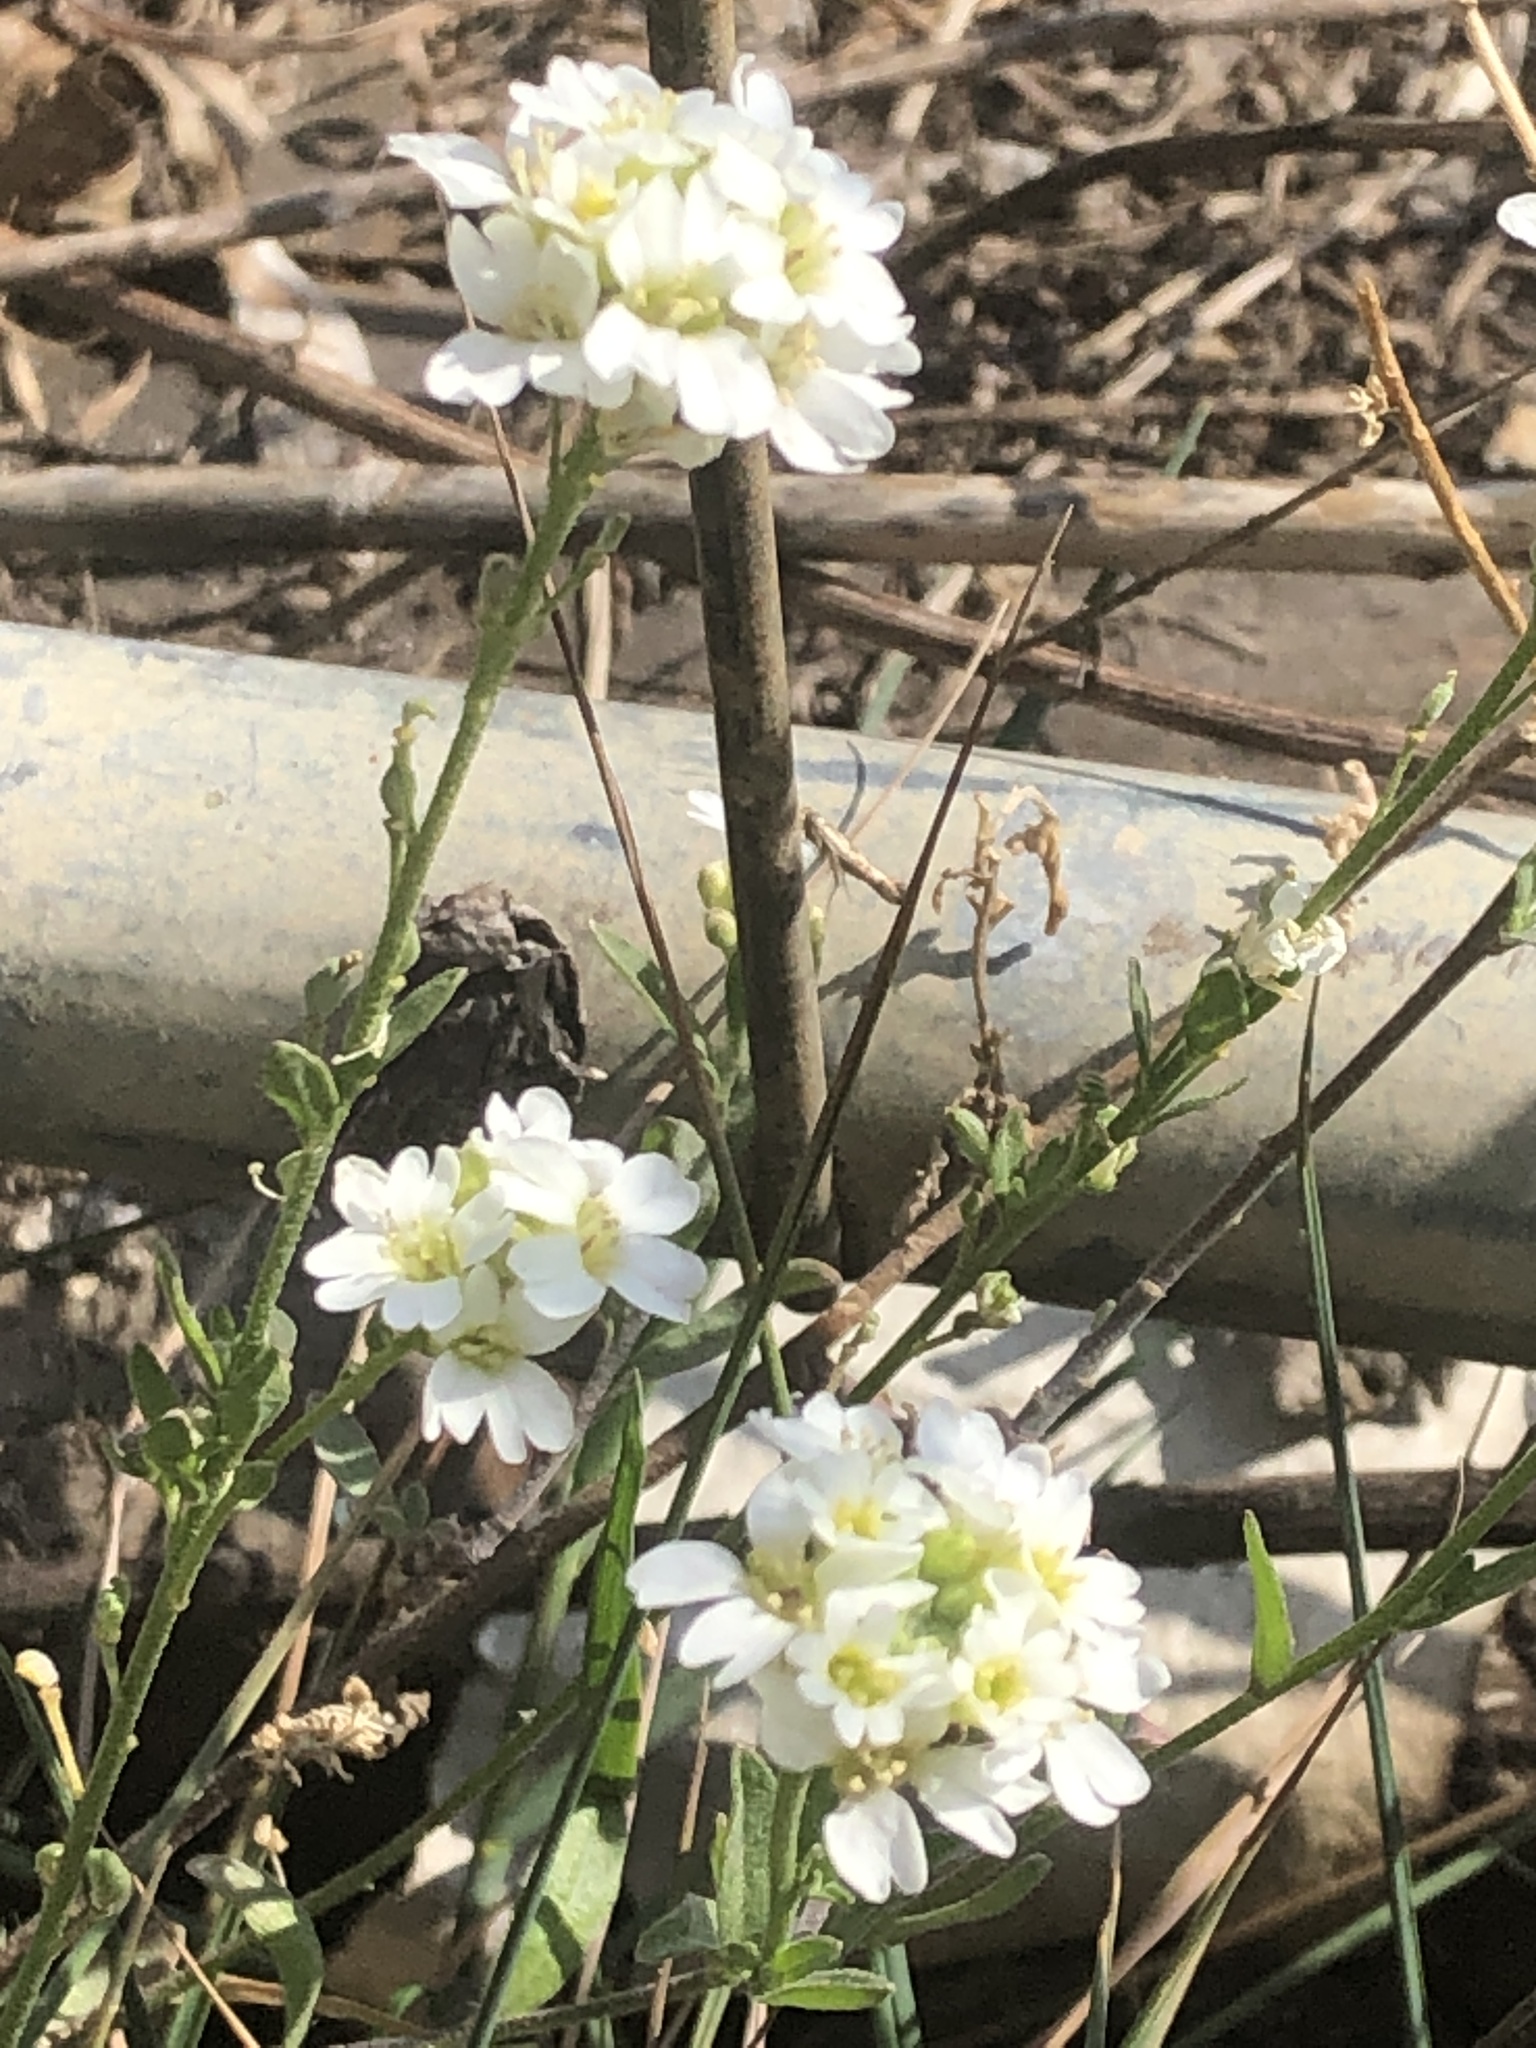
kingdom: Plantae
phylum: Tracheophyta
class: Magnoliopsida
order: Brassicales
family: Brassicaceae
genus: Berteroa
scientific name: Berteroa incana
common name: Hoary alison
